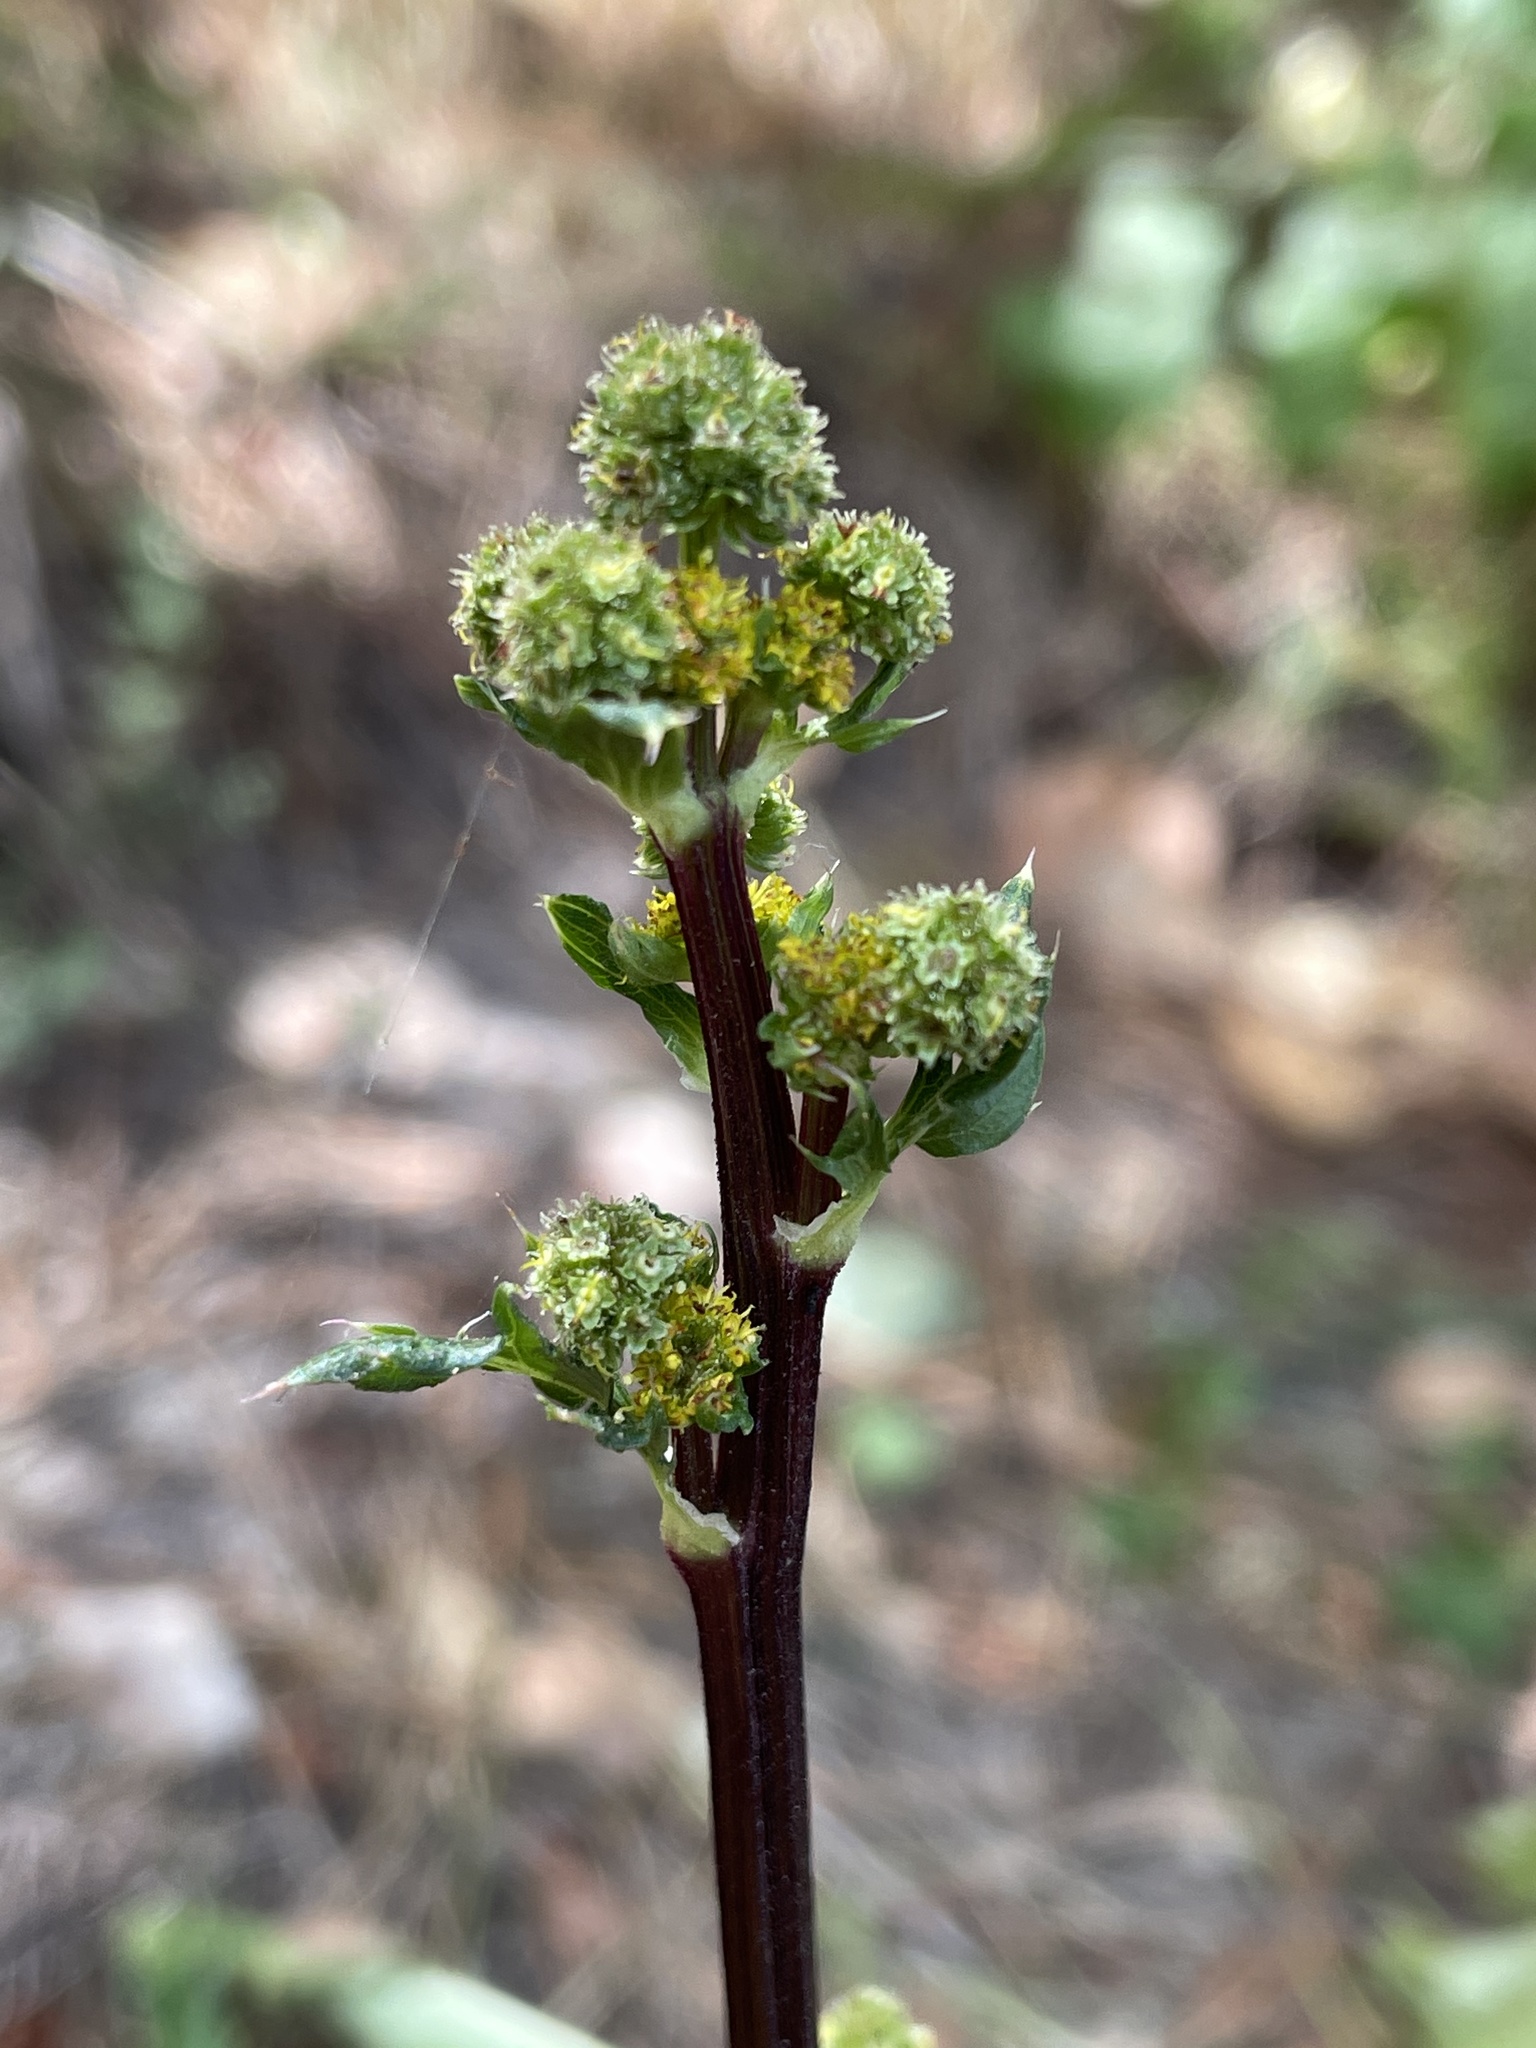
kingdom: Plantae
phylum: Tracheophyta
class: Magnoliopsida
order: Apiales
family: Apiaceae
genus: Sanicula
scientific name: Sanicula crassicaulis
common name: Western snakeroot
